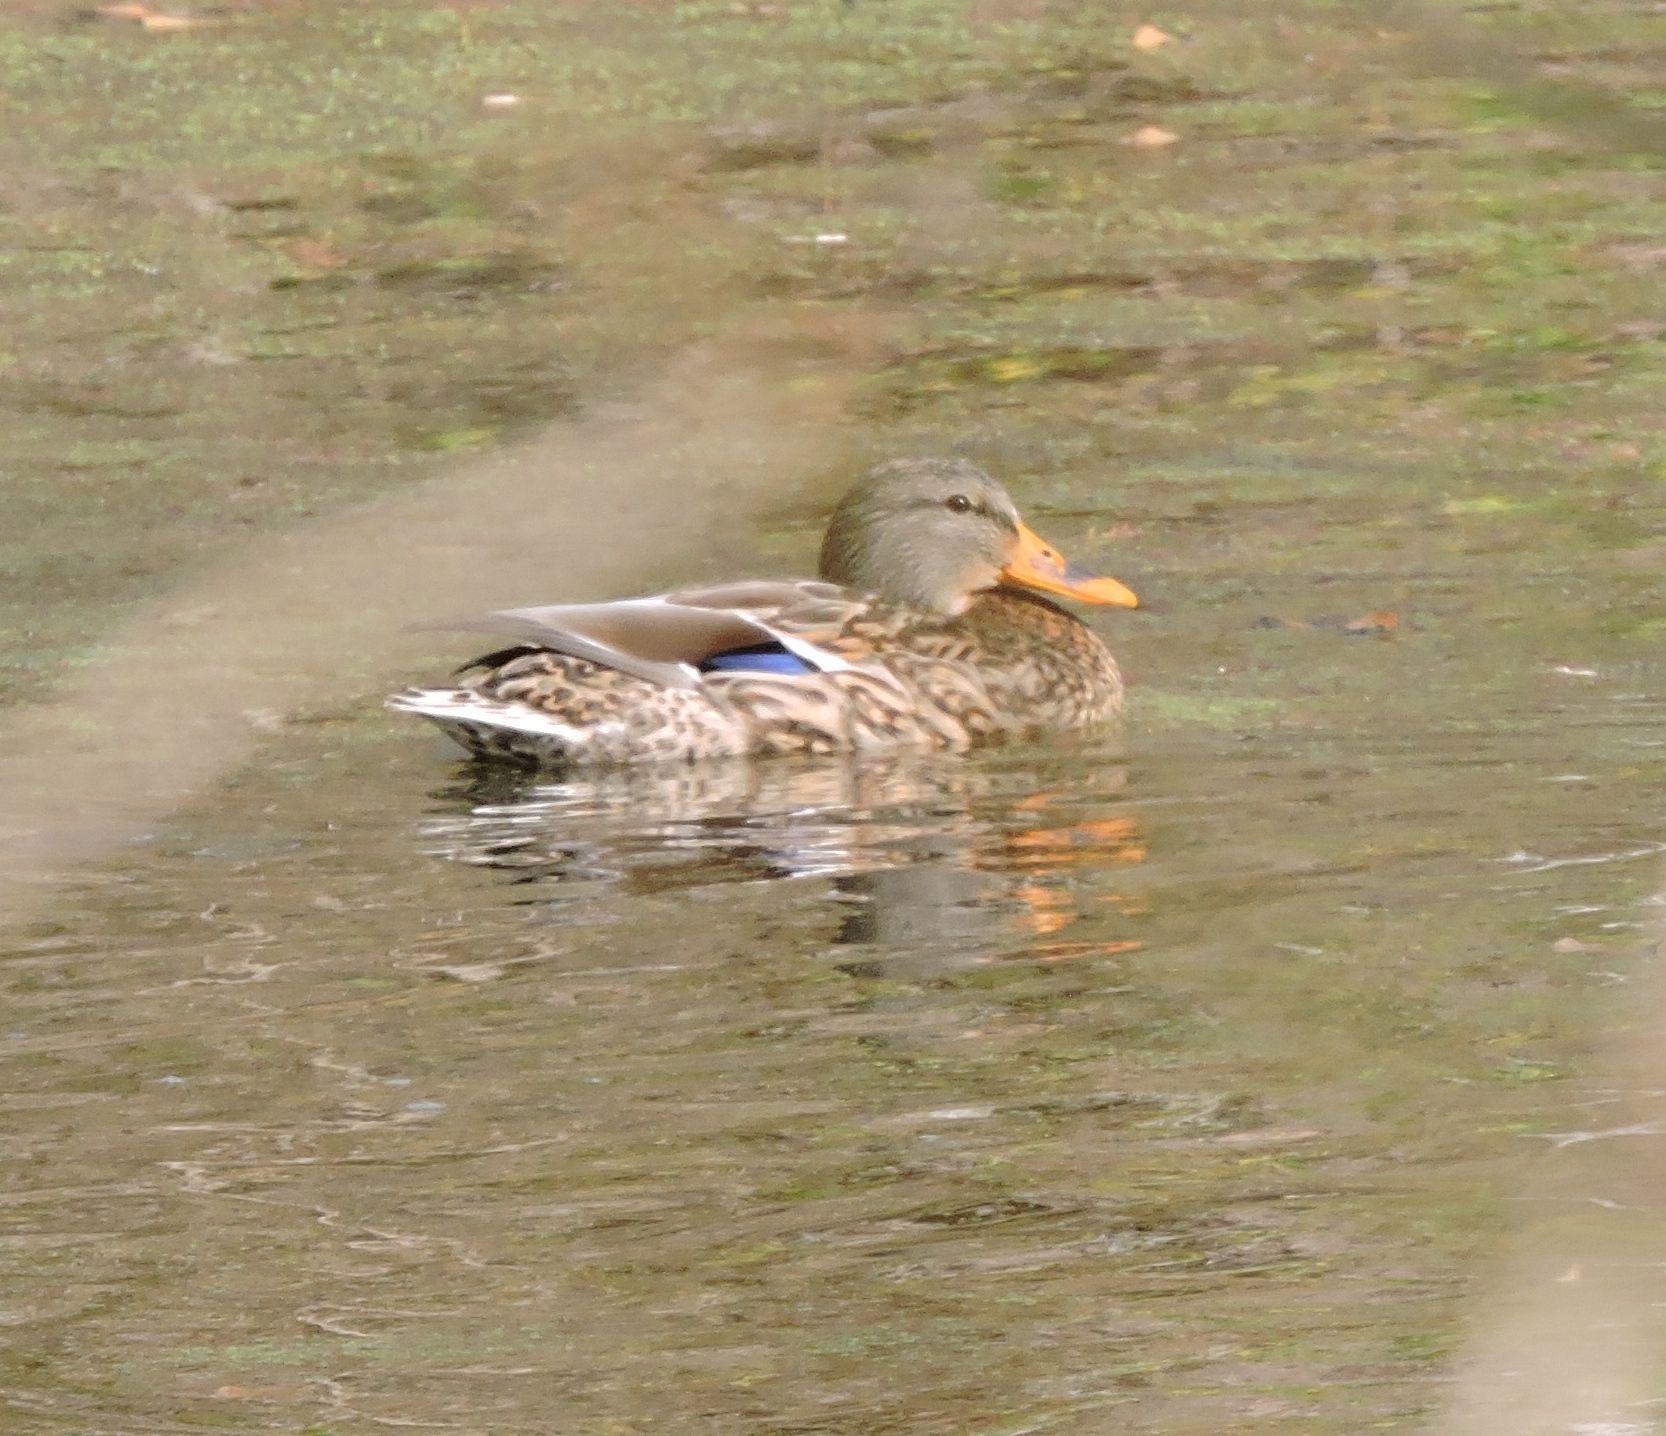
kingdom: Animalia
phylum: Chordata
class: Aves
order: Anseriformes
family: Anatidae
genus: Anas
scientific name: Anas platyrhynchos
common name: Mallard
